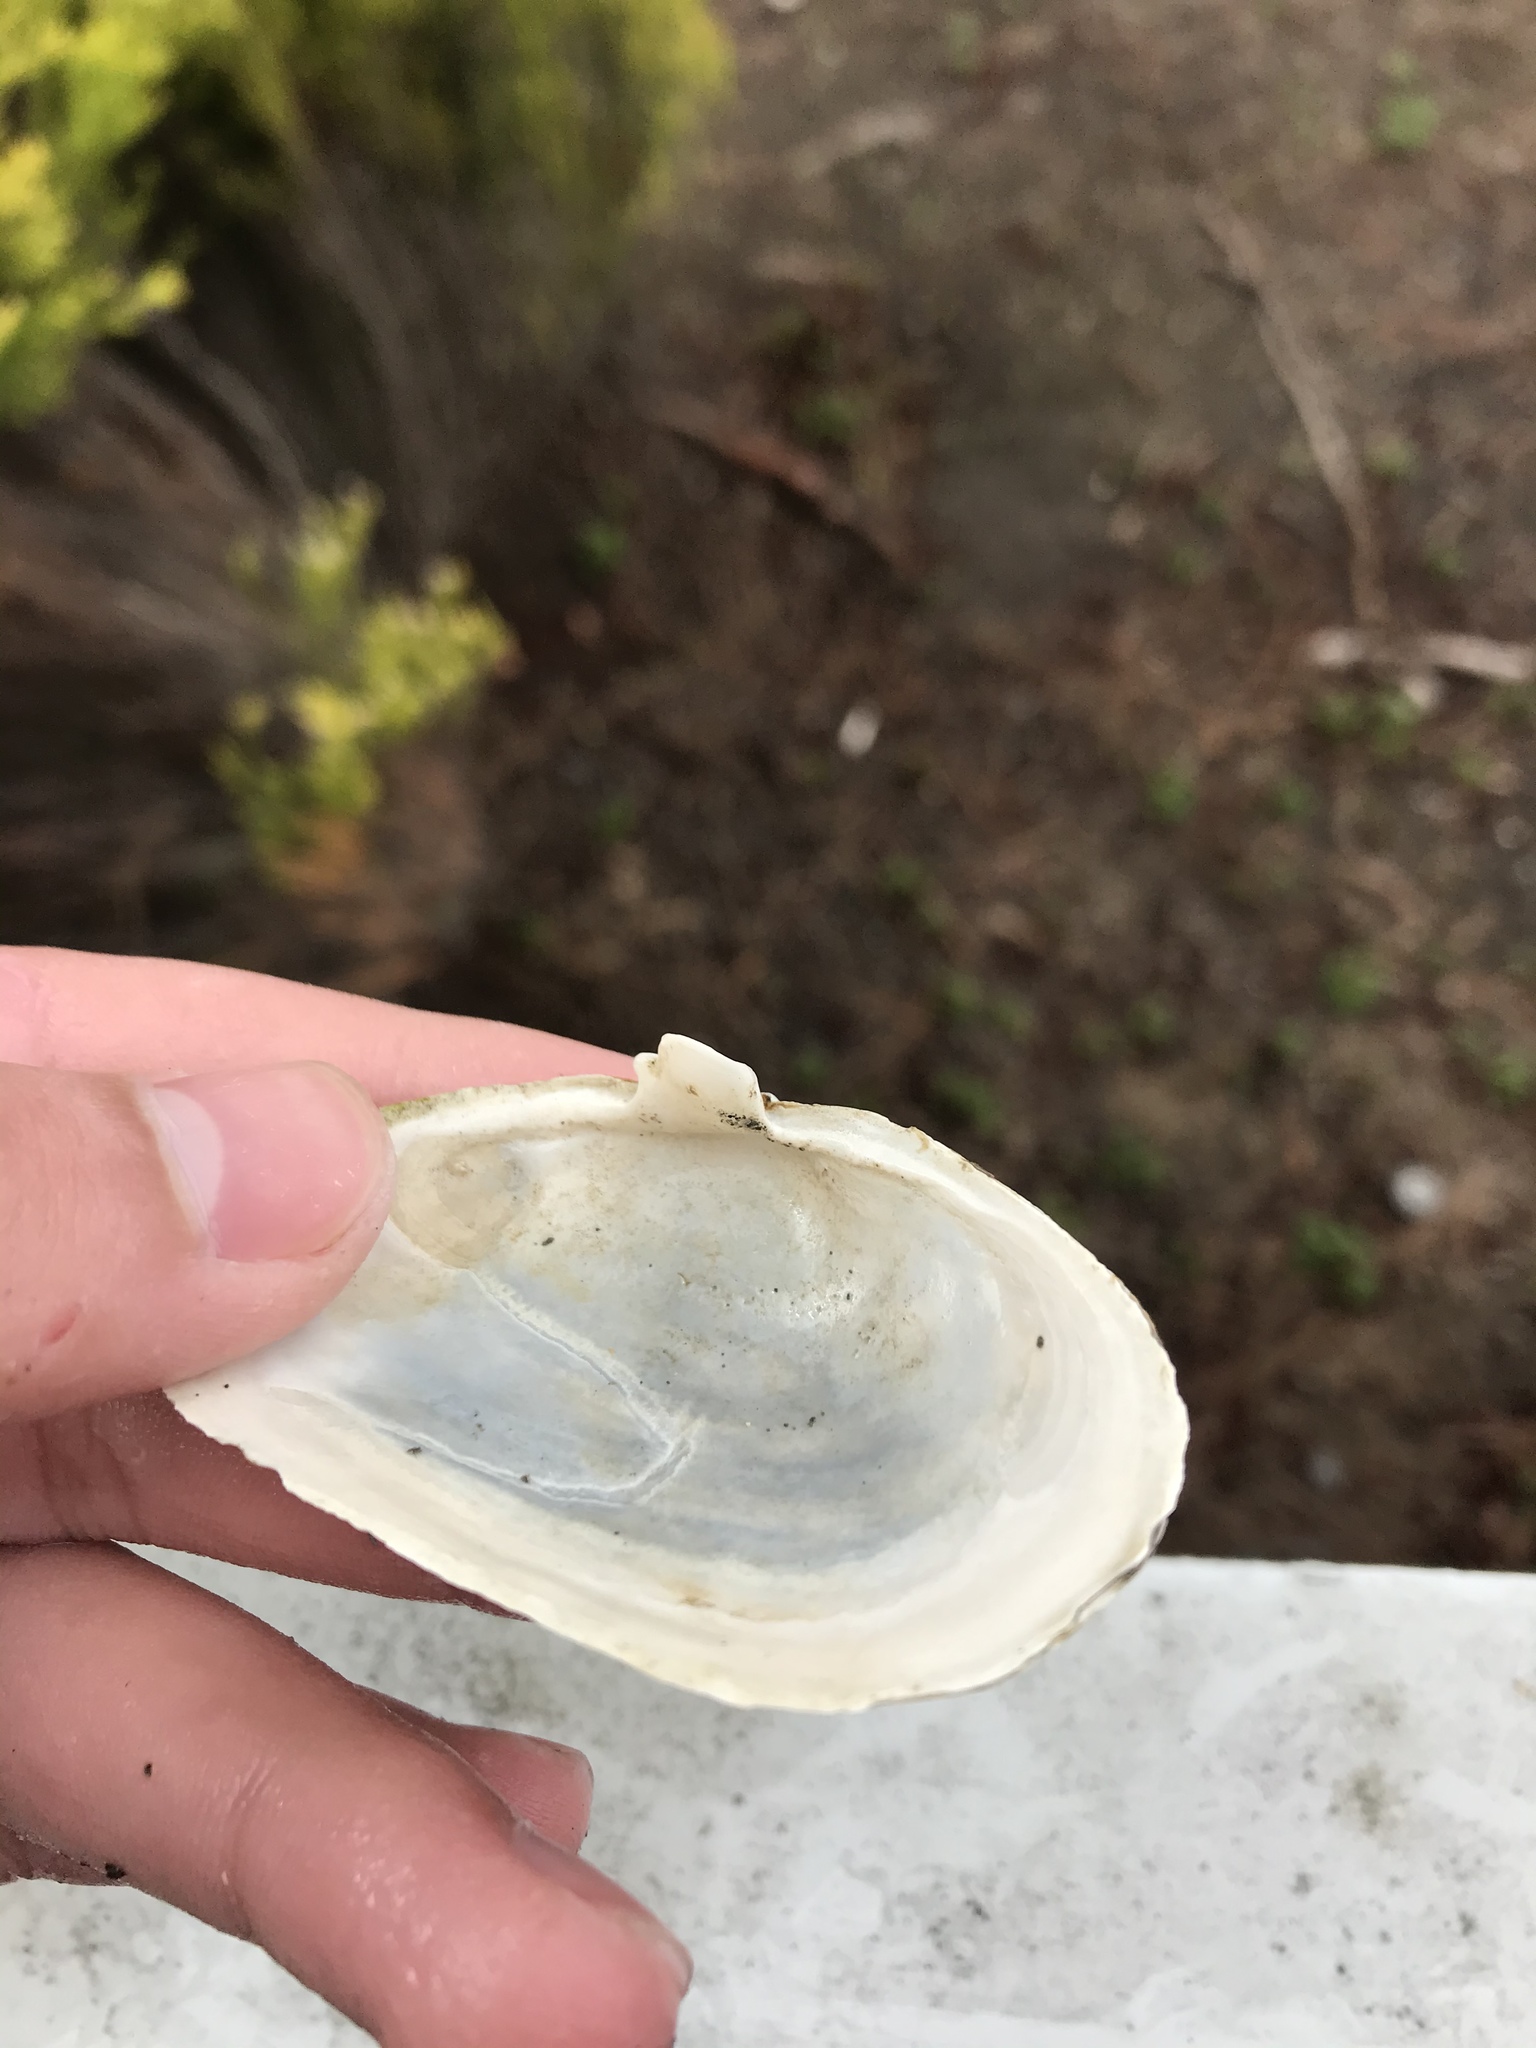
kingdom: Animalia
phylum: Mollusca
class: Bivalvia
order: Myida
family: Myidae
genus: Mya
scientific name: Mya arenaria
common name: Soft-shelled clam
